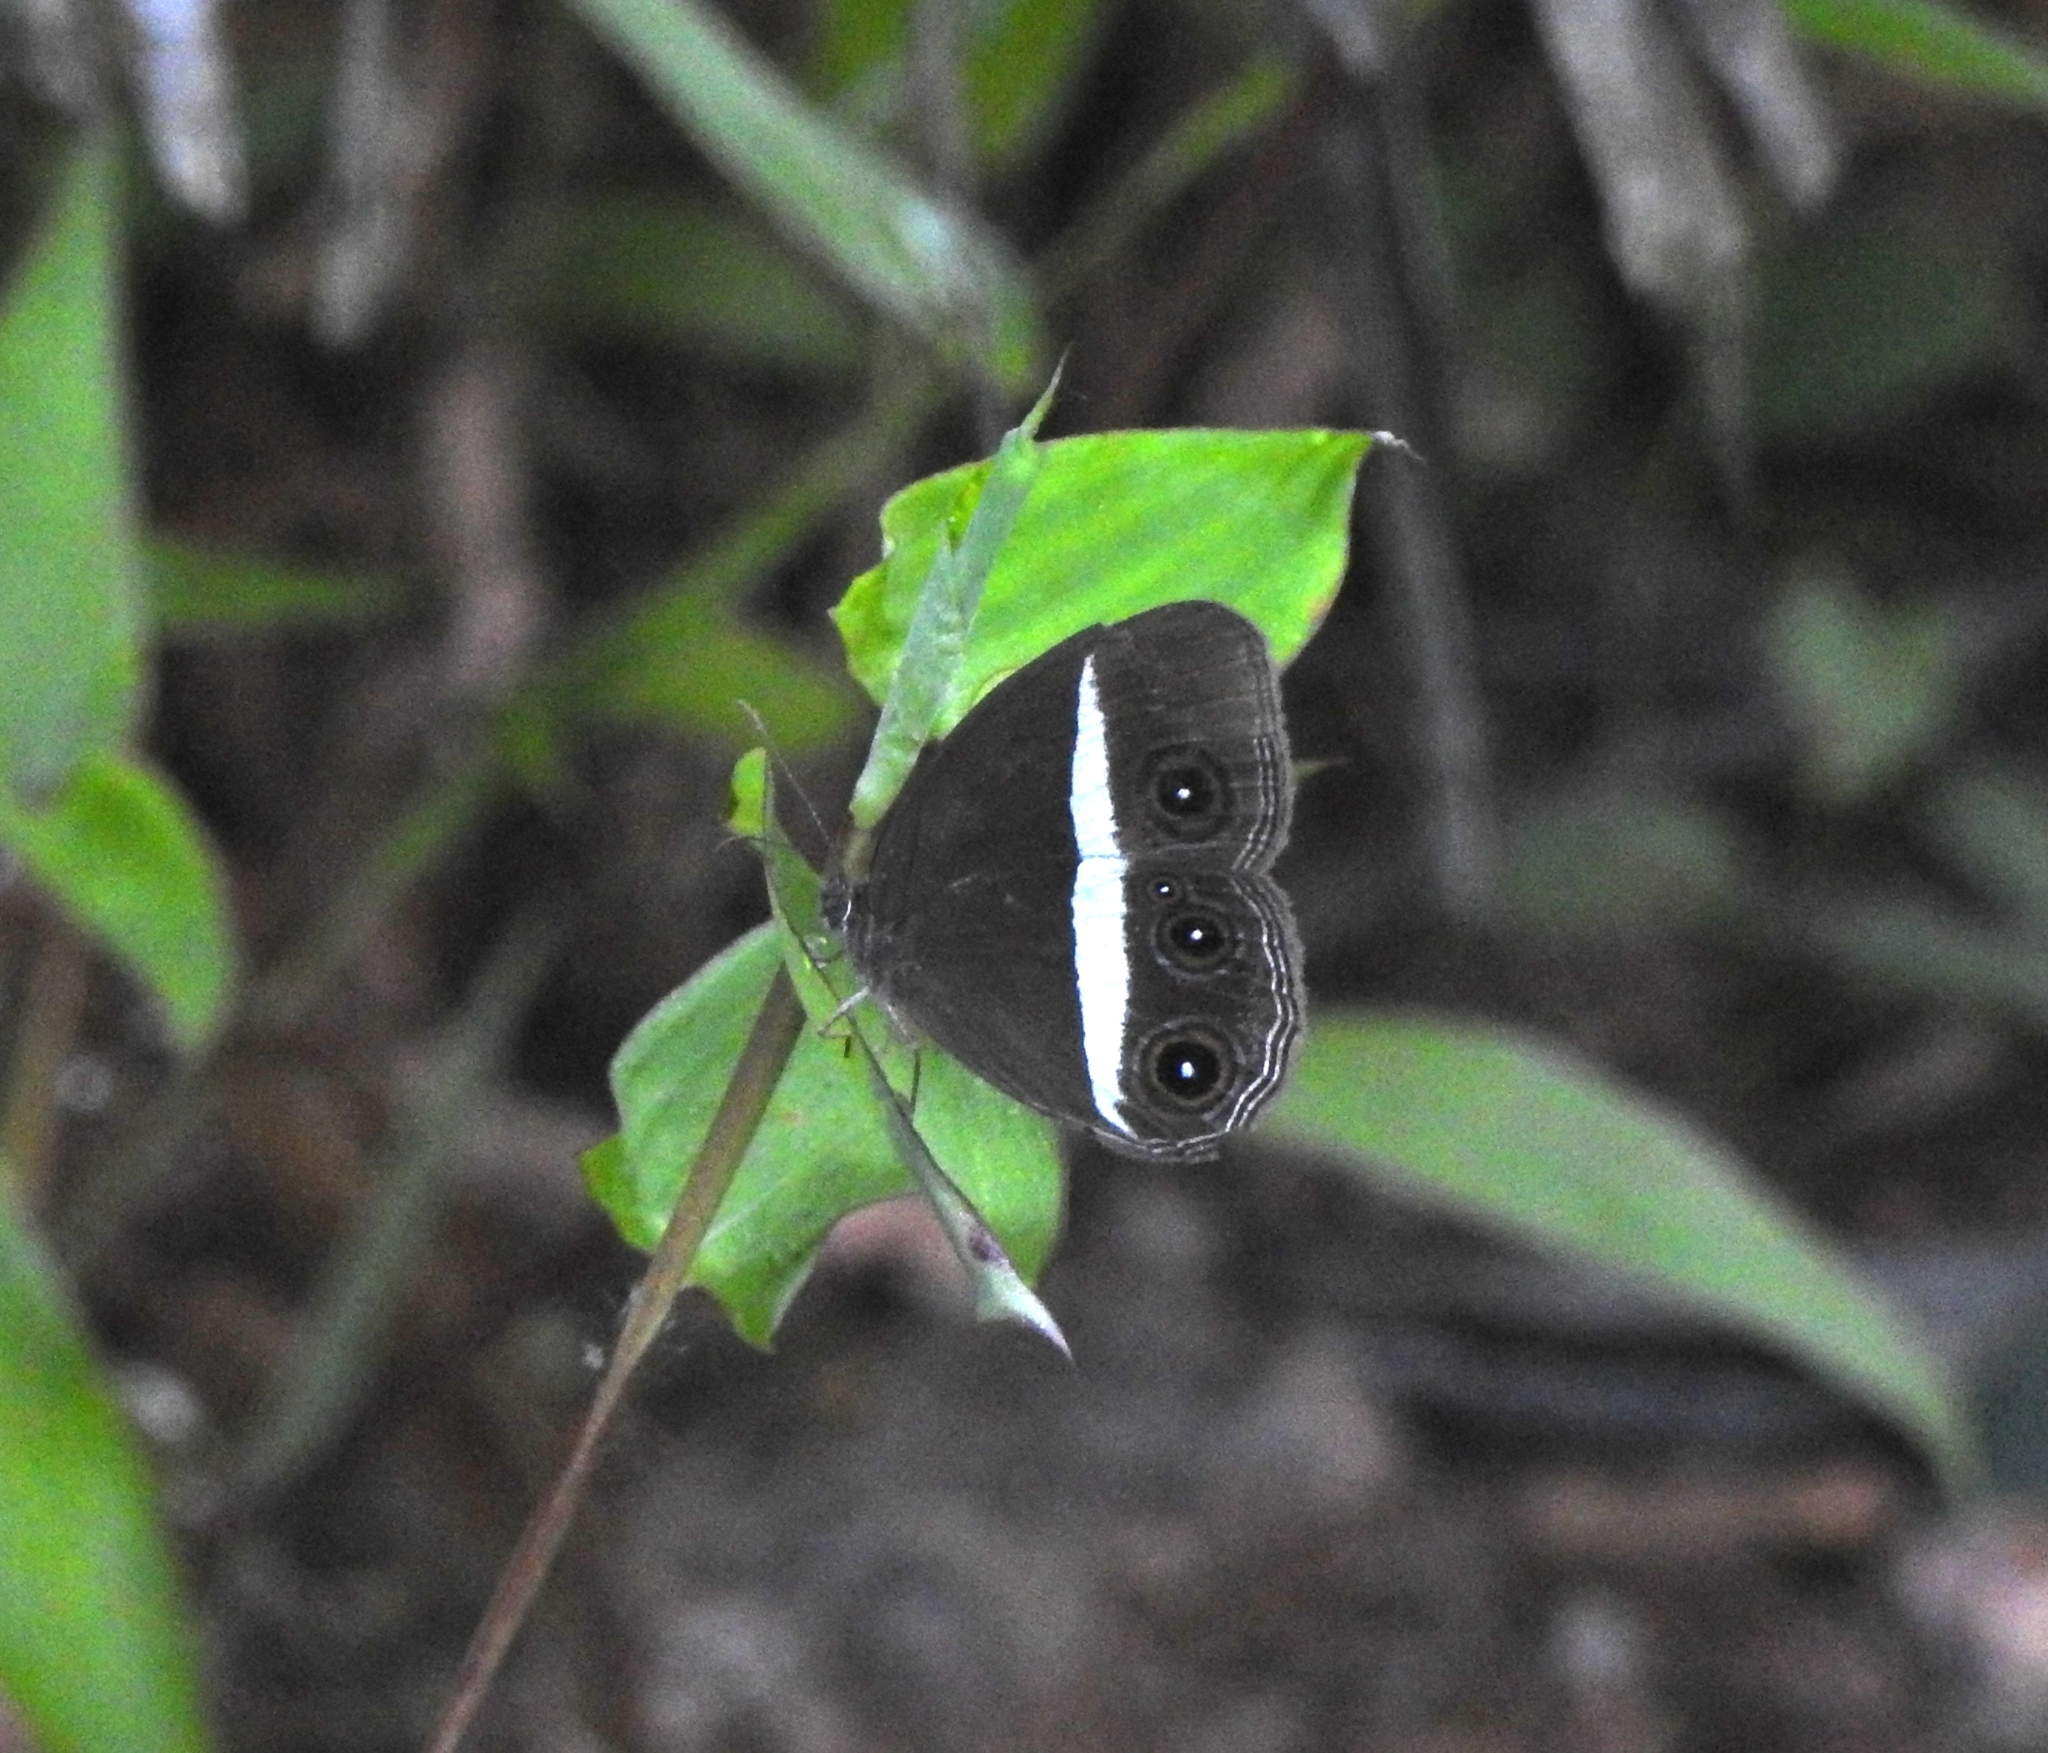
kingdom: Animalia
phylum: Arthropoda
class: Insecta
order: Lepidoptera
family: Nymphalidae
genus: Orsotriaena
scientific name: Orsotriaena medus
